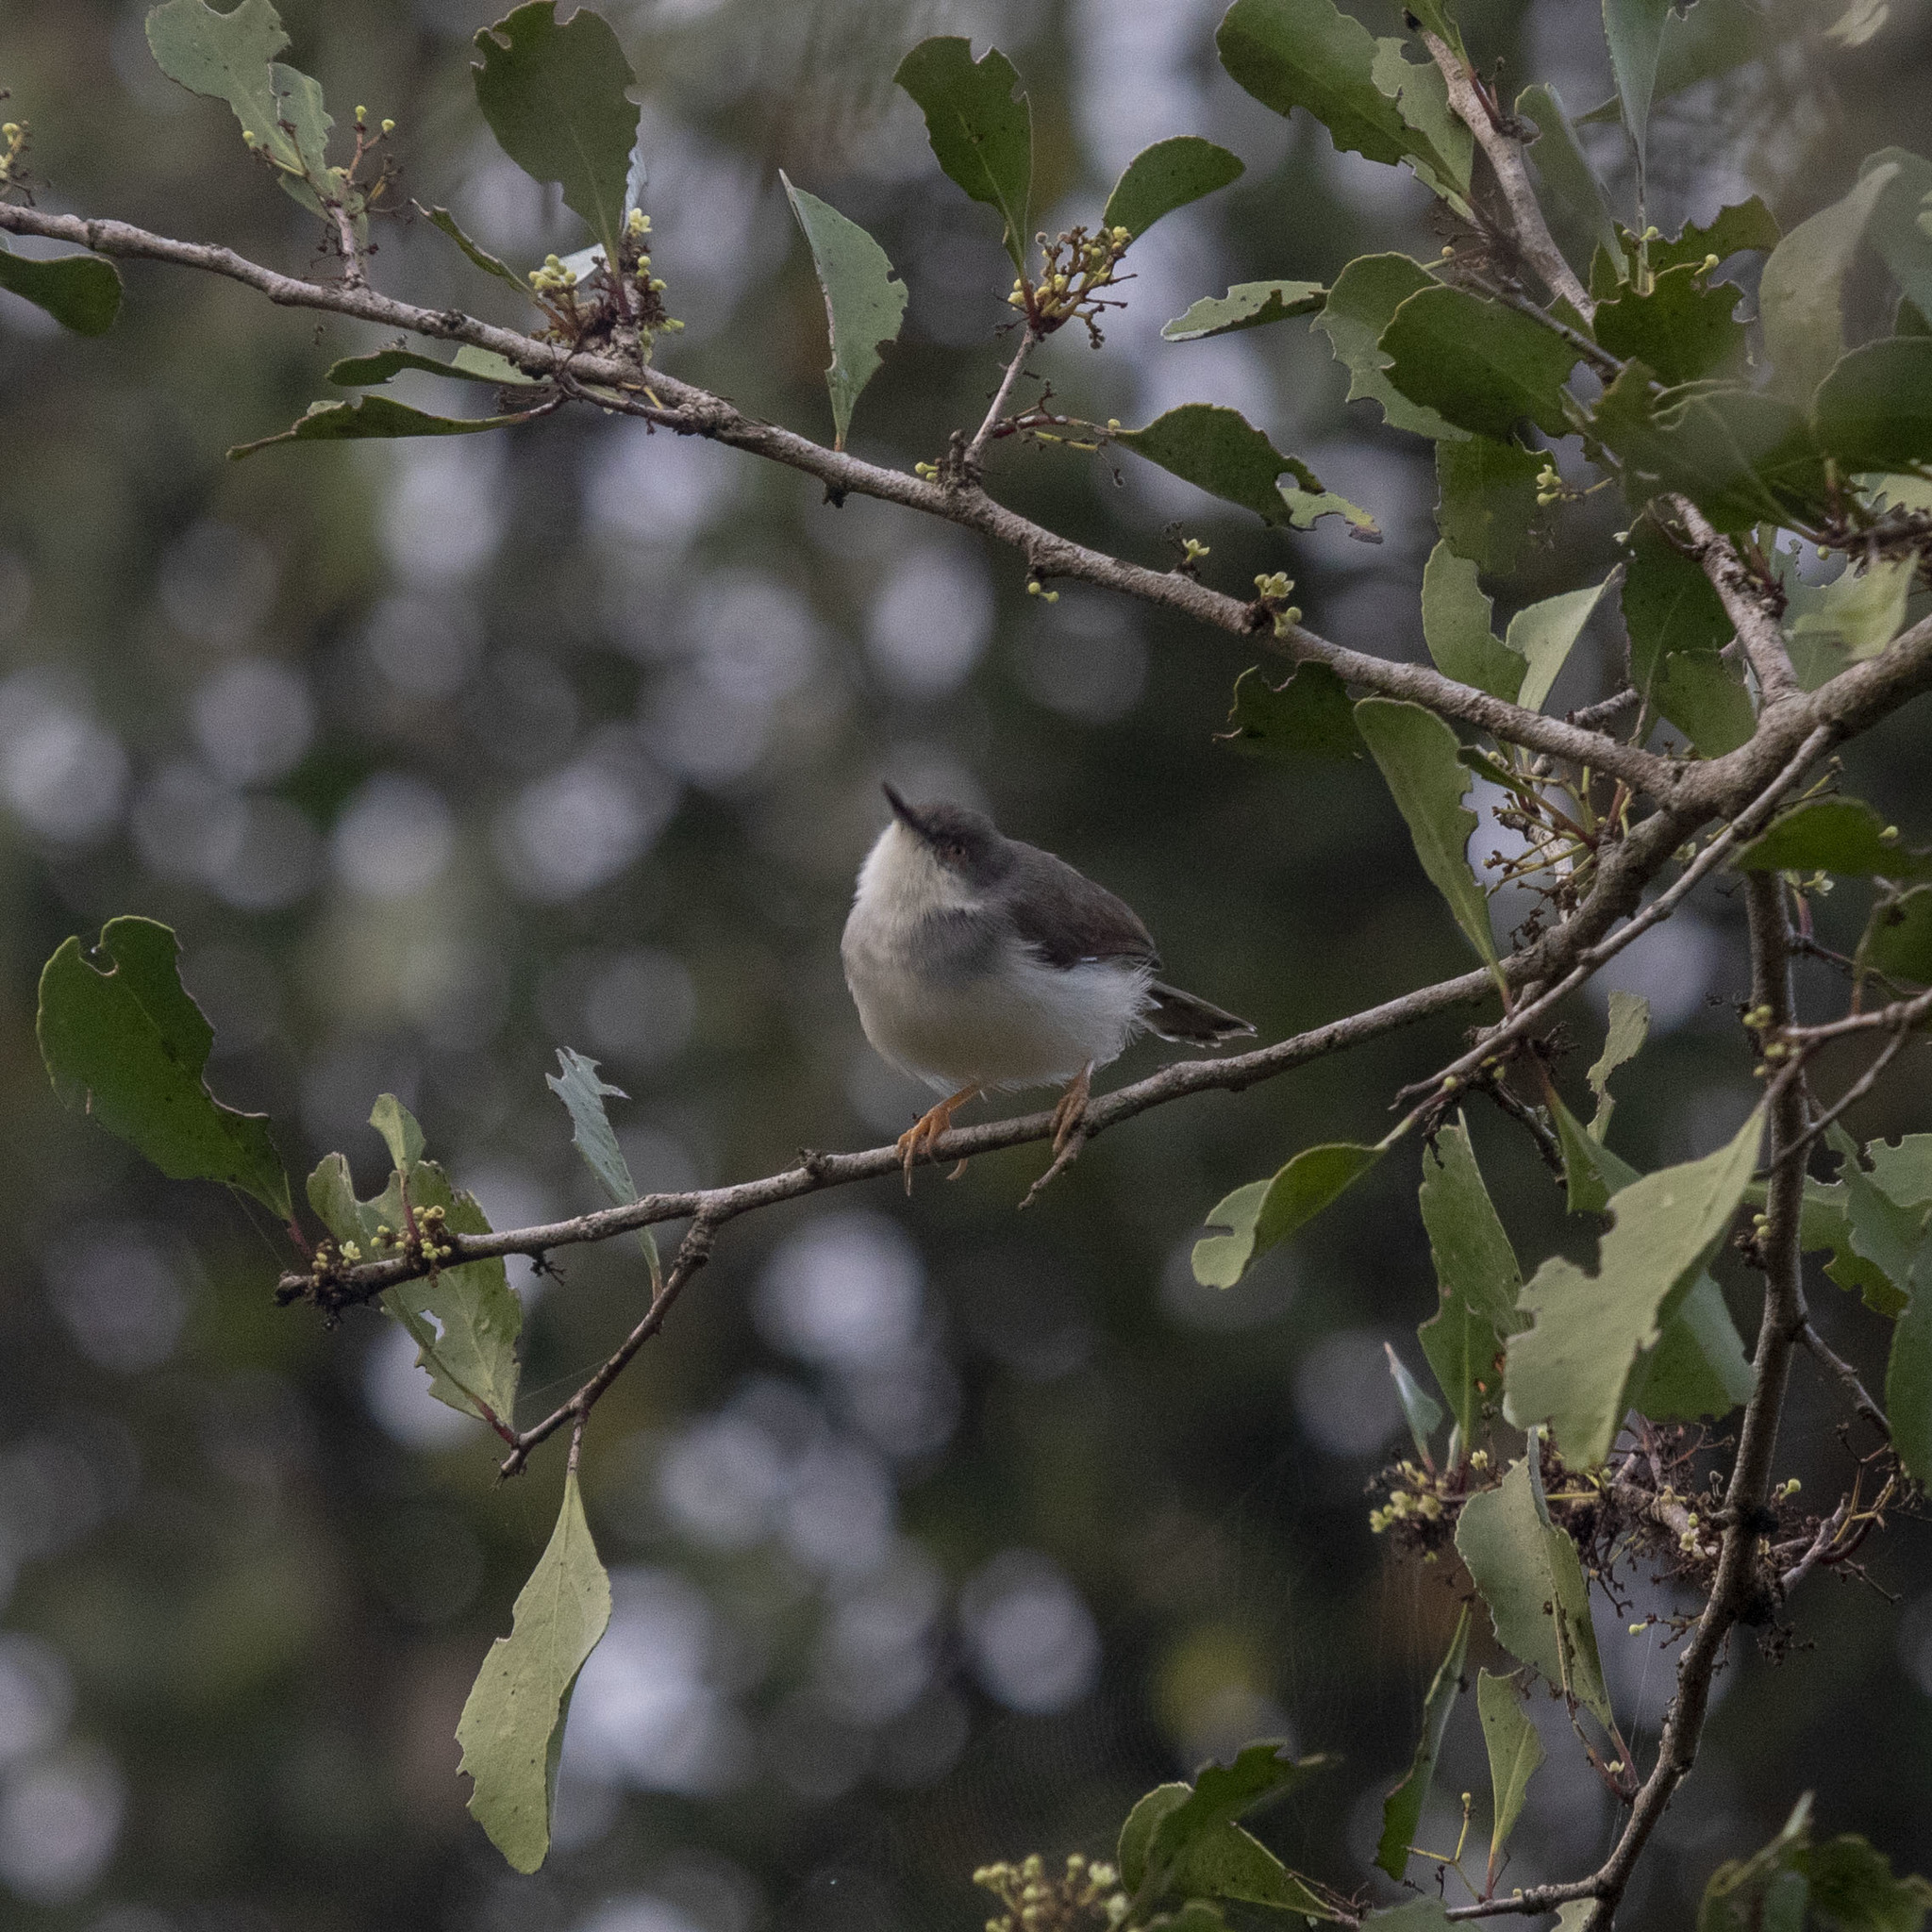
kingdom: Animalia
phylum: Chordata
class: Aves
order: Passeriformes
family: Cisticolidae
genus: Prinia
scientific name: Prinia hodgsonii
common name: Grey-breasted prinia
